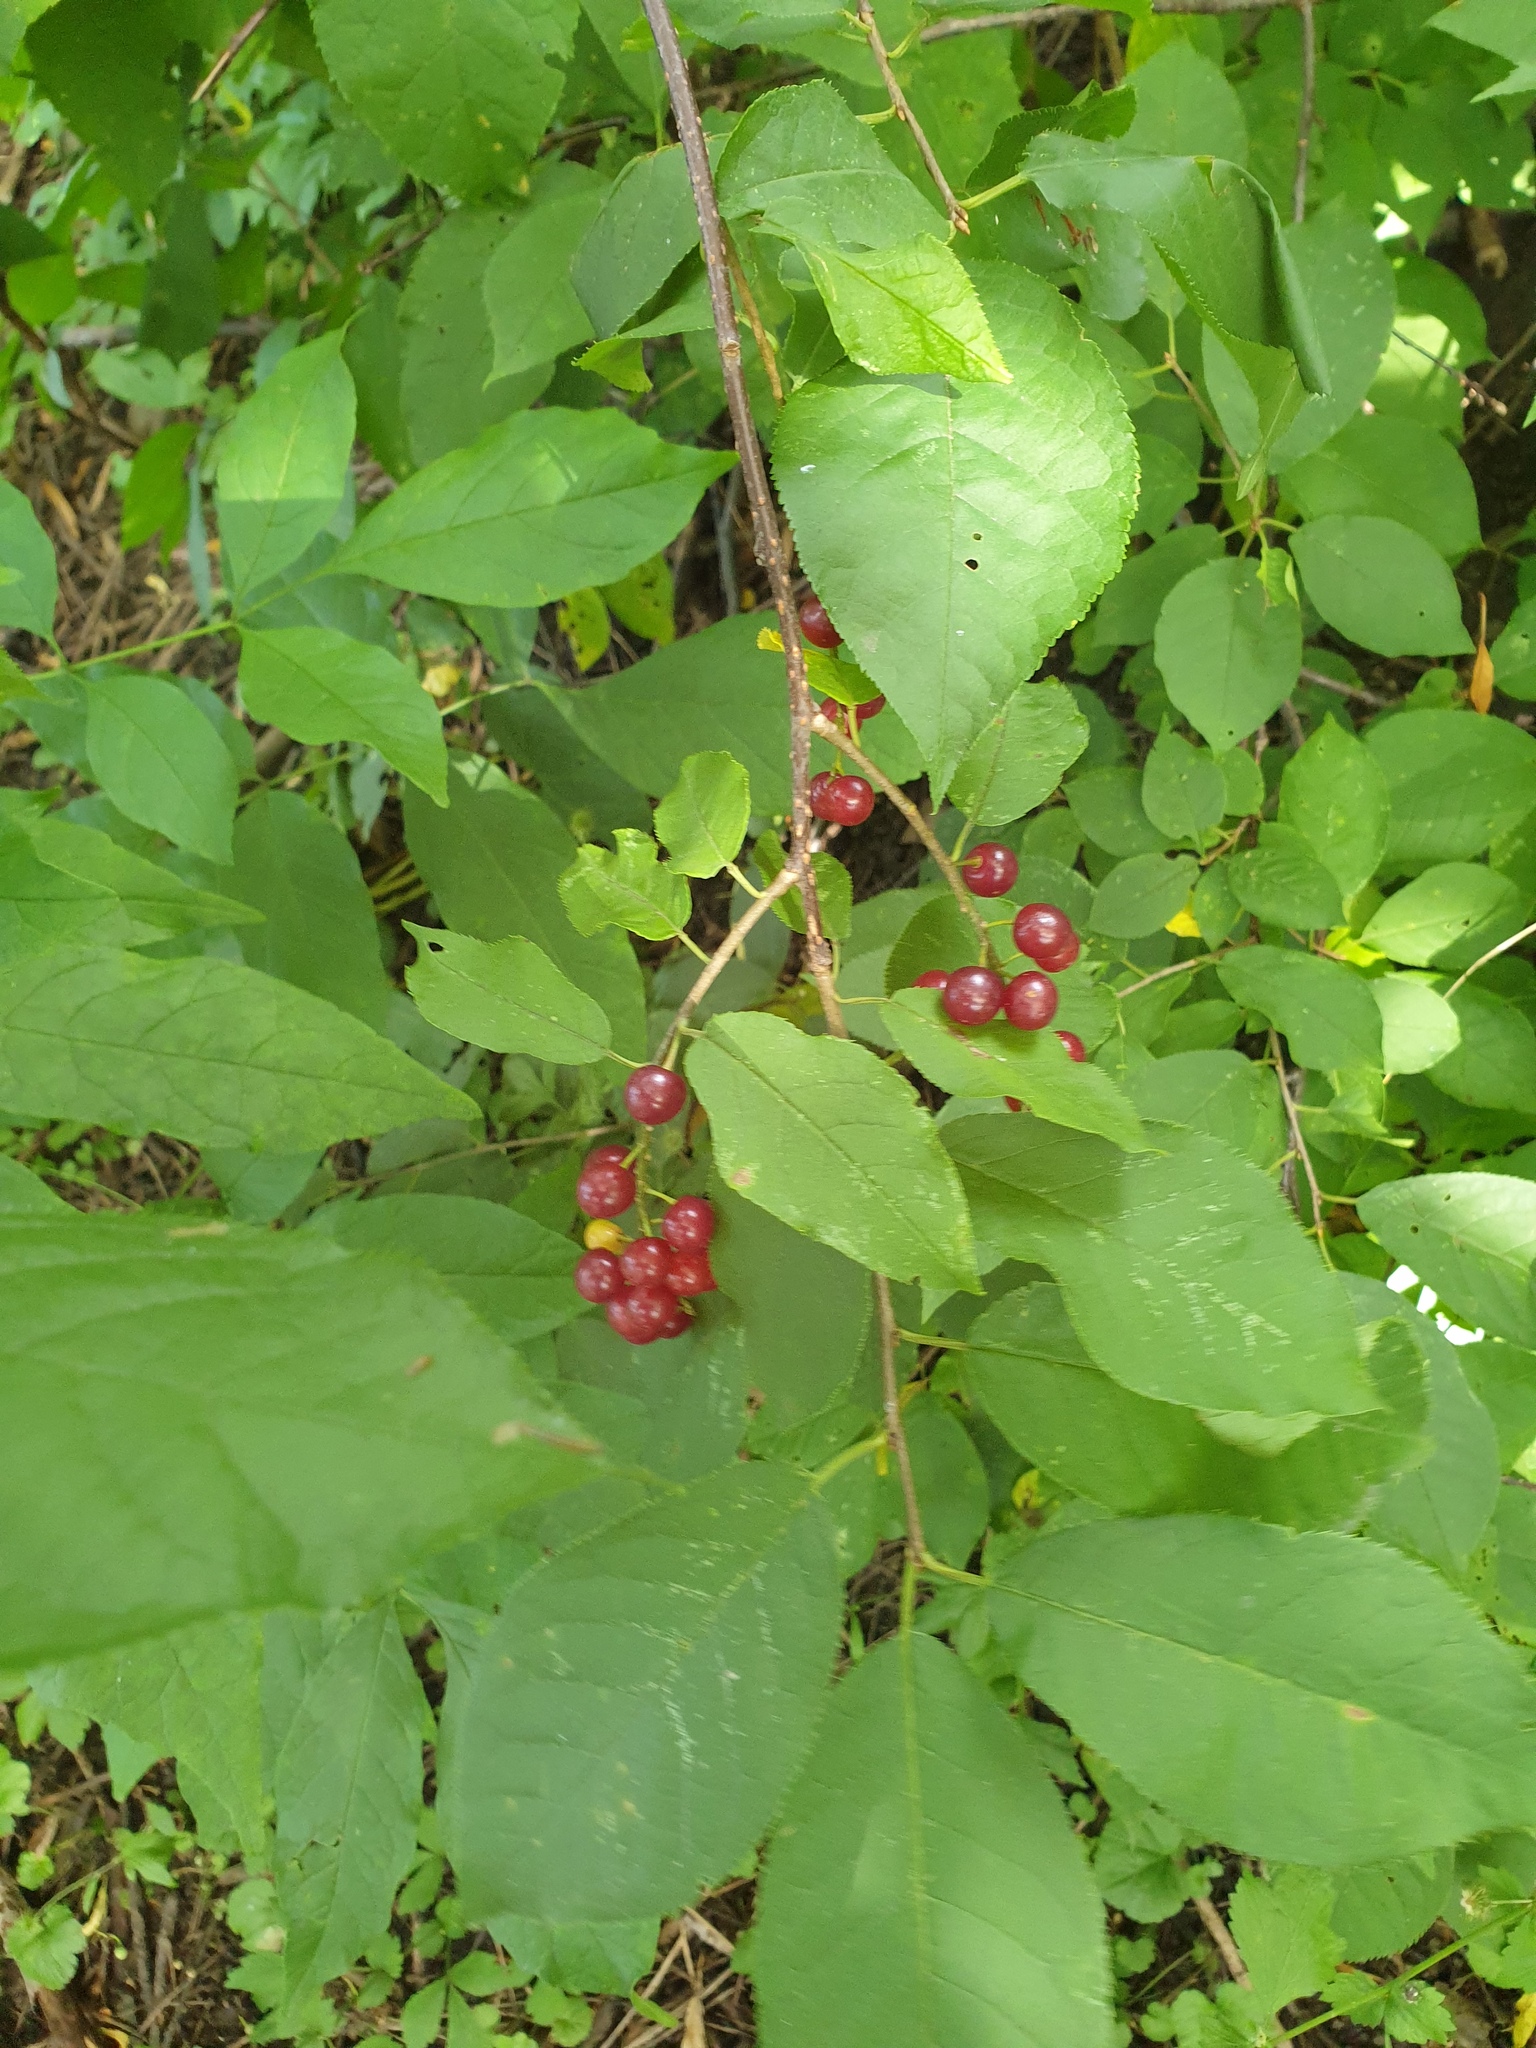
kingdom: Plantae
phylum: Tracheophyta
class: Magnoliopsida
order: Rosales
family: Rosaceae
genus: Prunus
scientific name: Prunus virginiana
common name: Chokecherry
